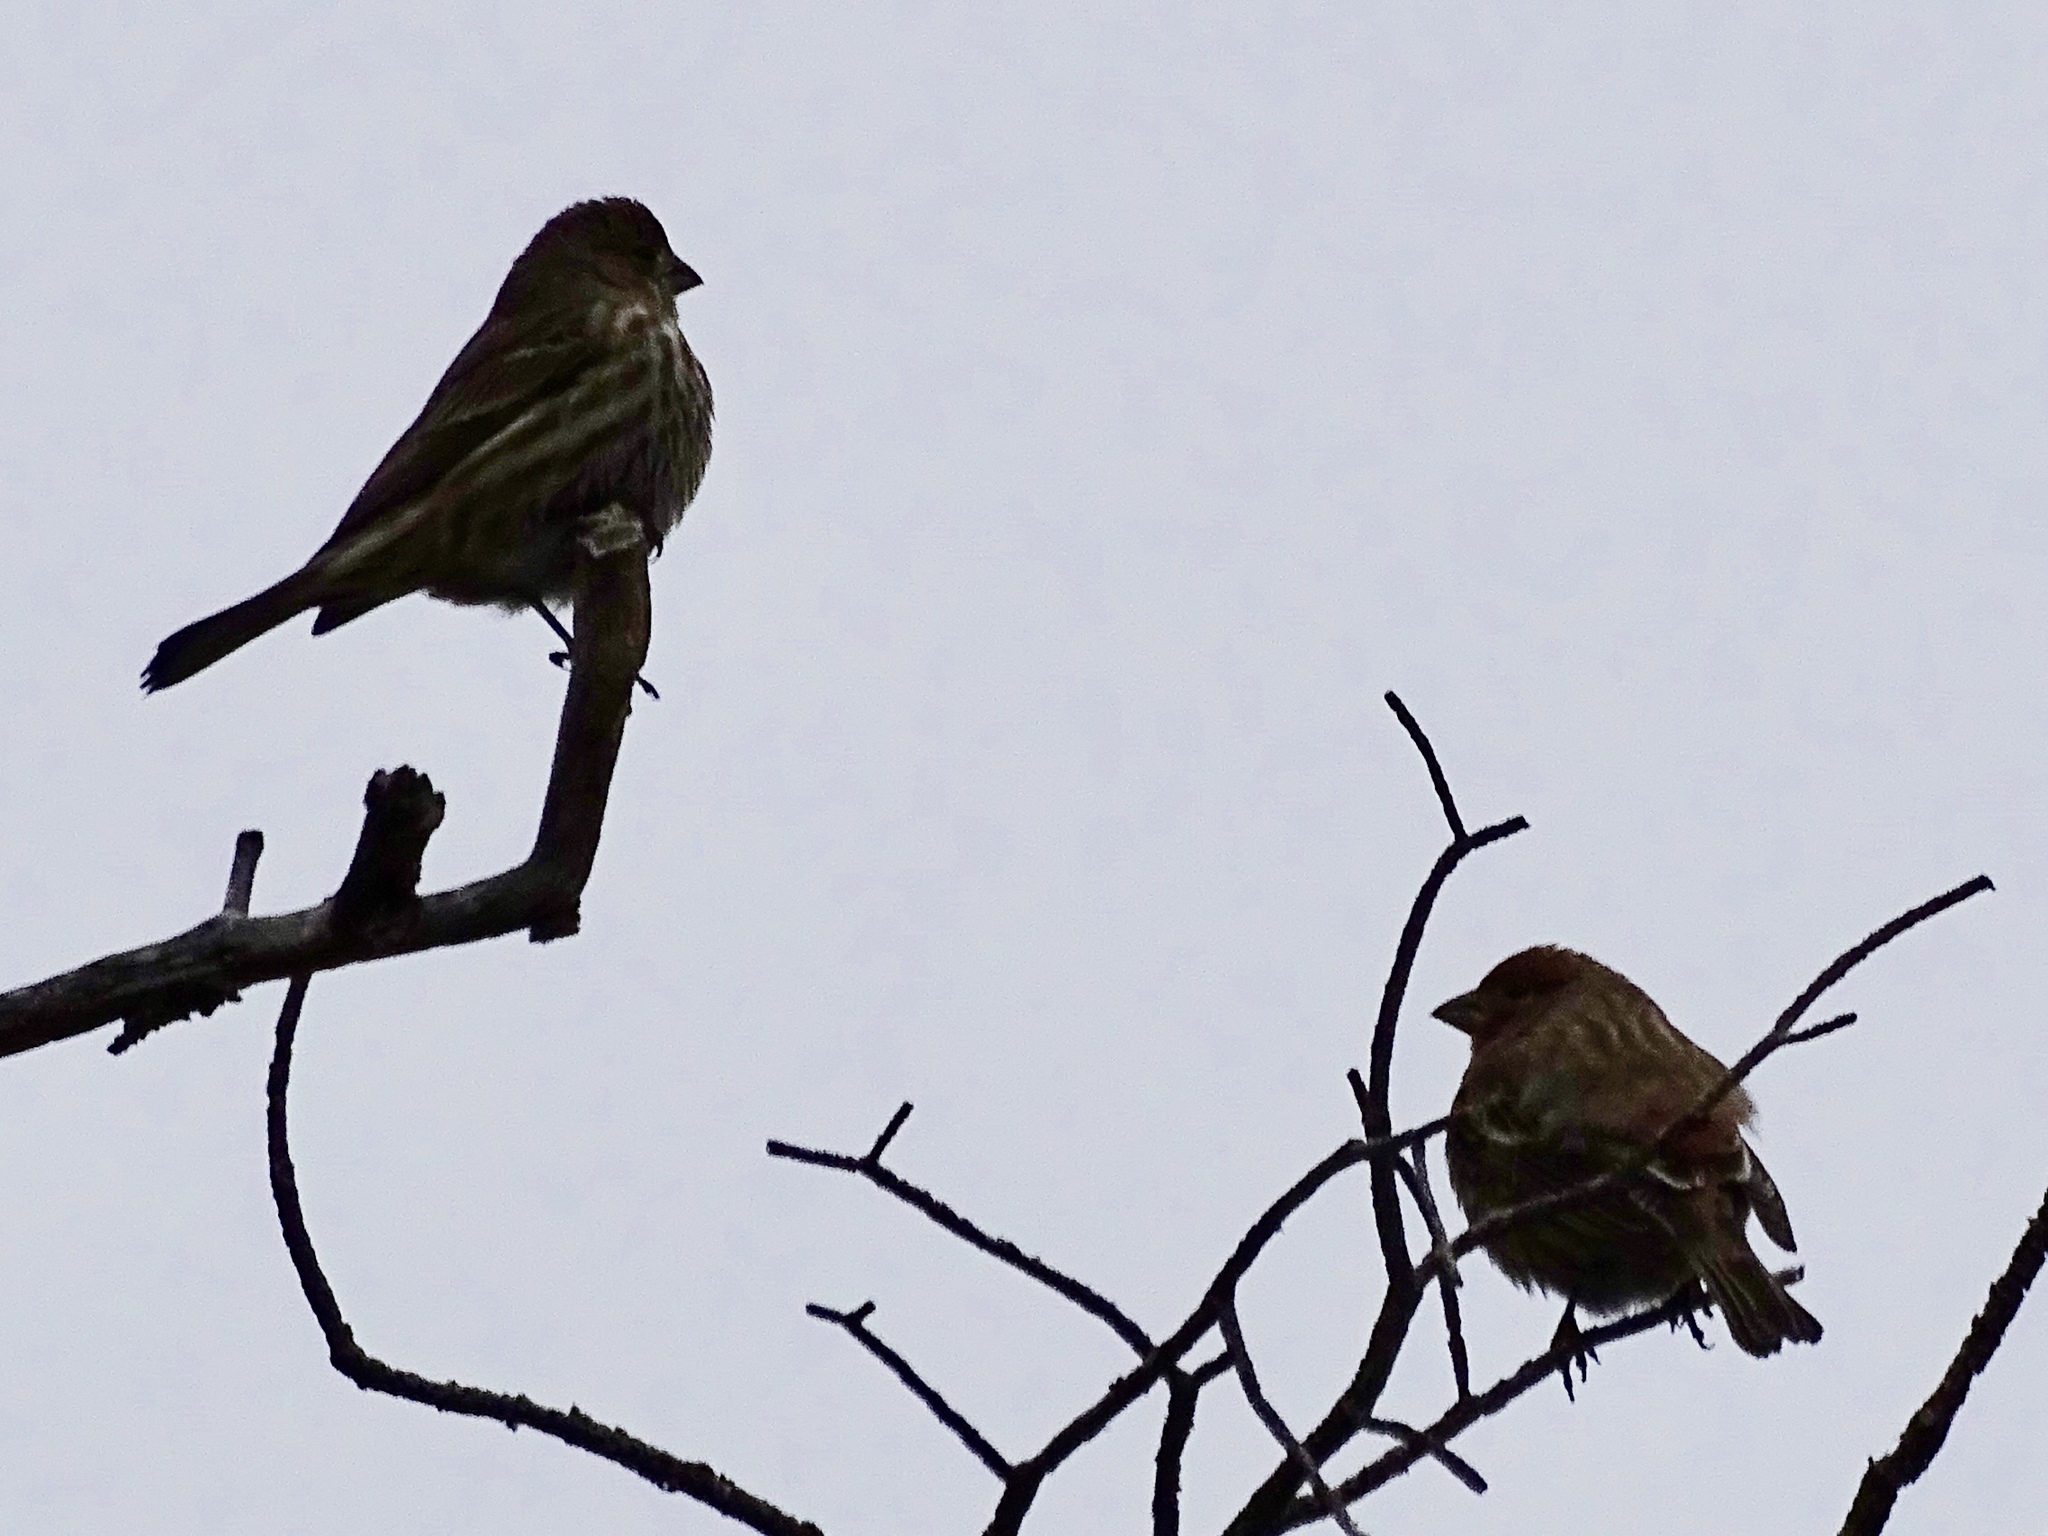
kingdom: Animalia
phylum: Chordata
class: Aves
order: Passeriformes
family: Fringillidae
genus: Haemorhous
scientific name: Haemorhous mexicanus
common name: House finch
